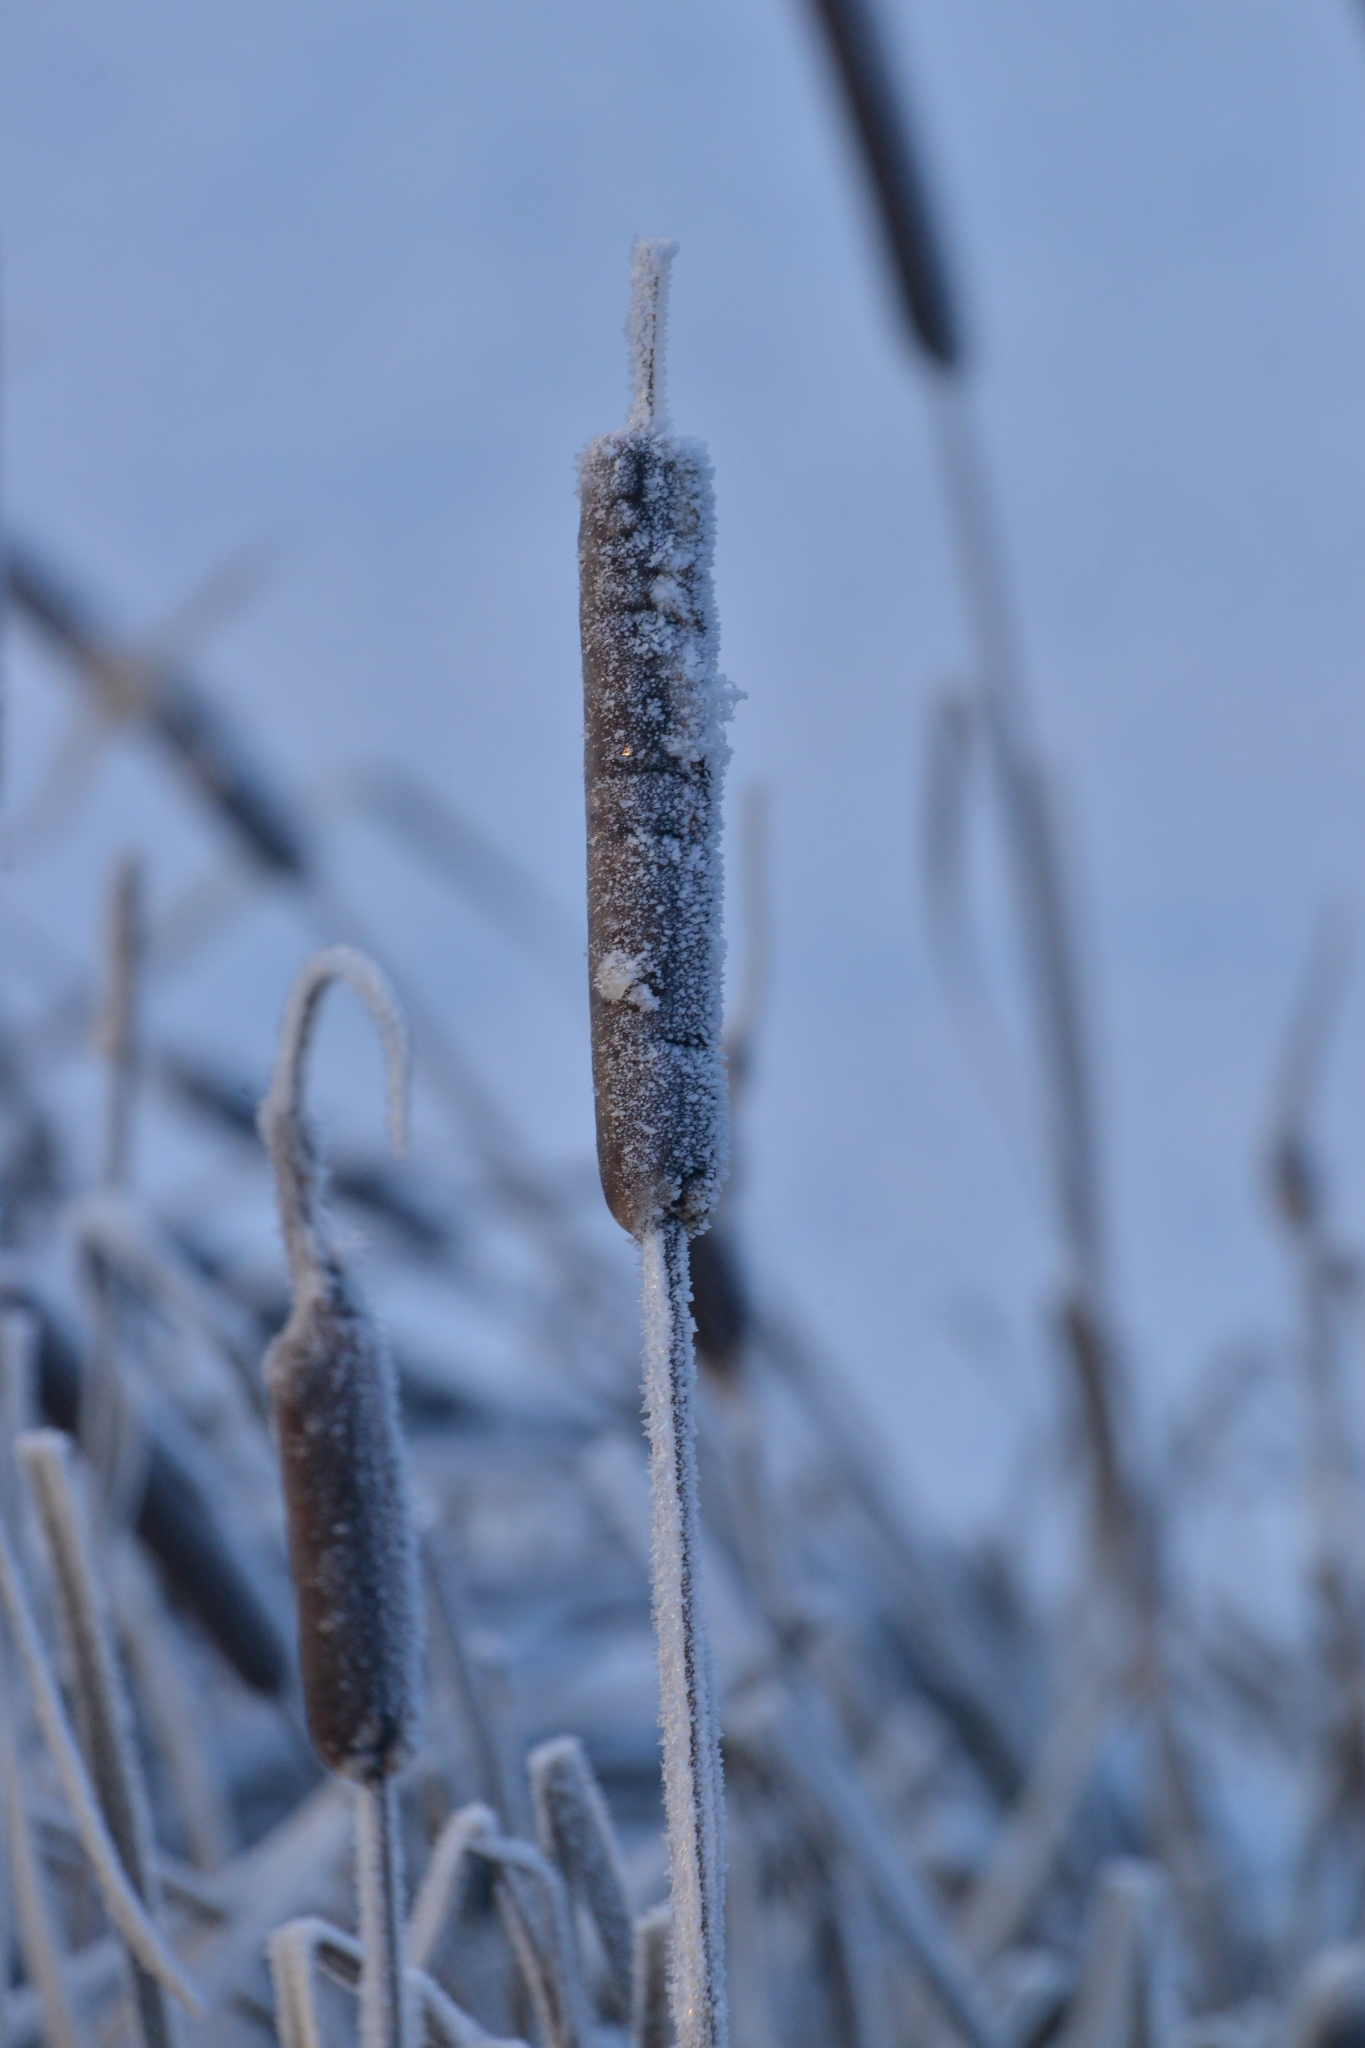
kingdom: Plantae
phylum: Tracheophyta
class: Liliopsida
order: Poales
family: Typhaceae
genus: Typha
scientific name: Typha latifolia
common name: Broadleaf cattail
